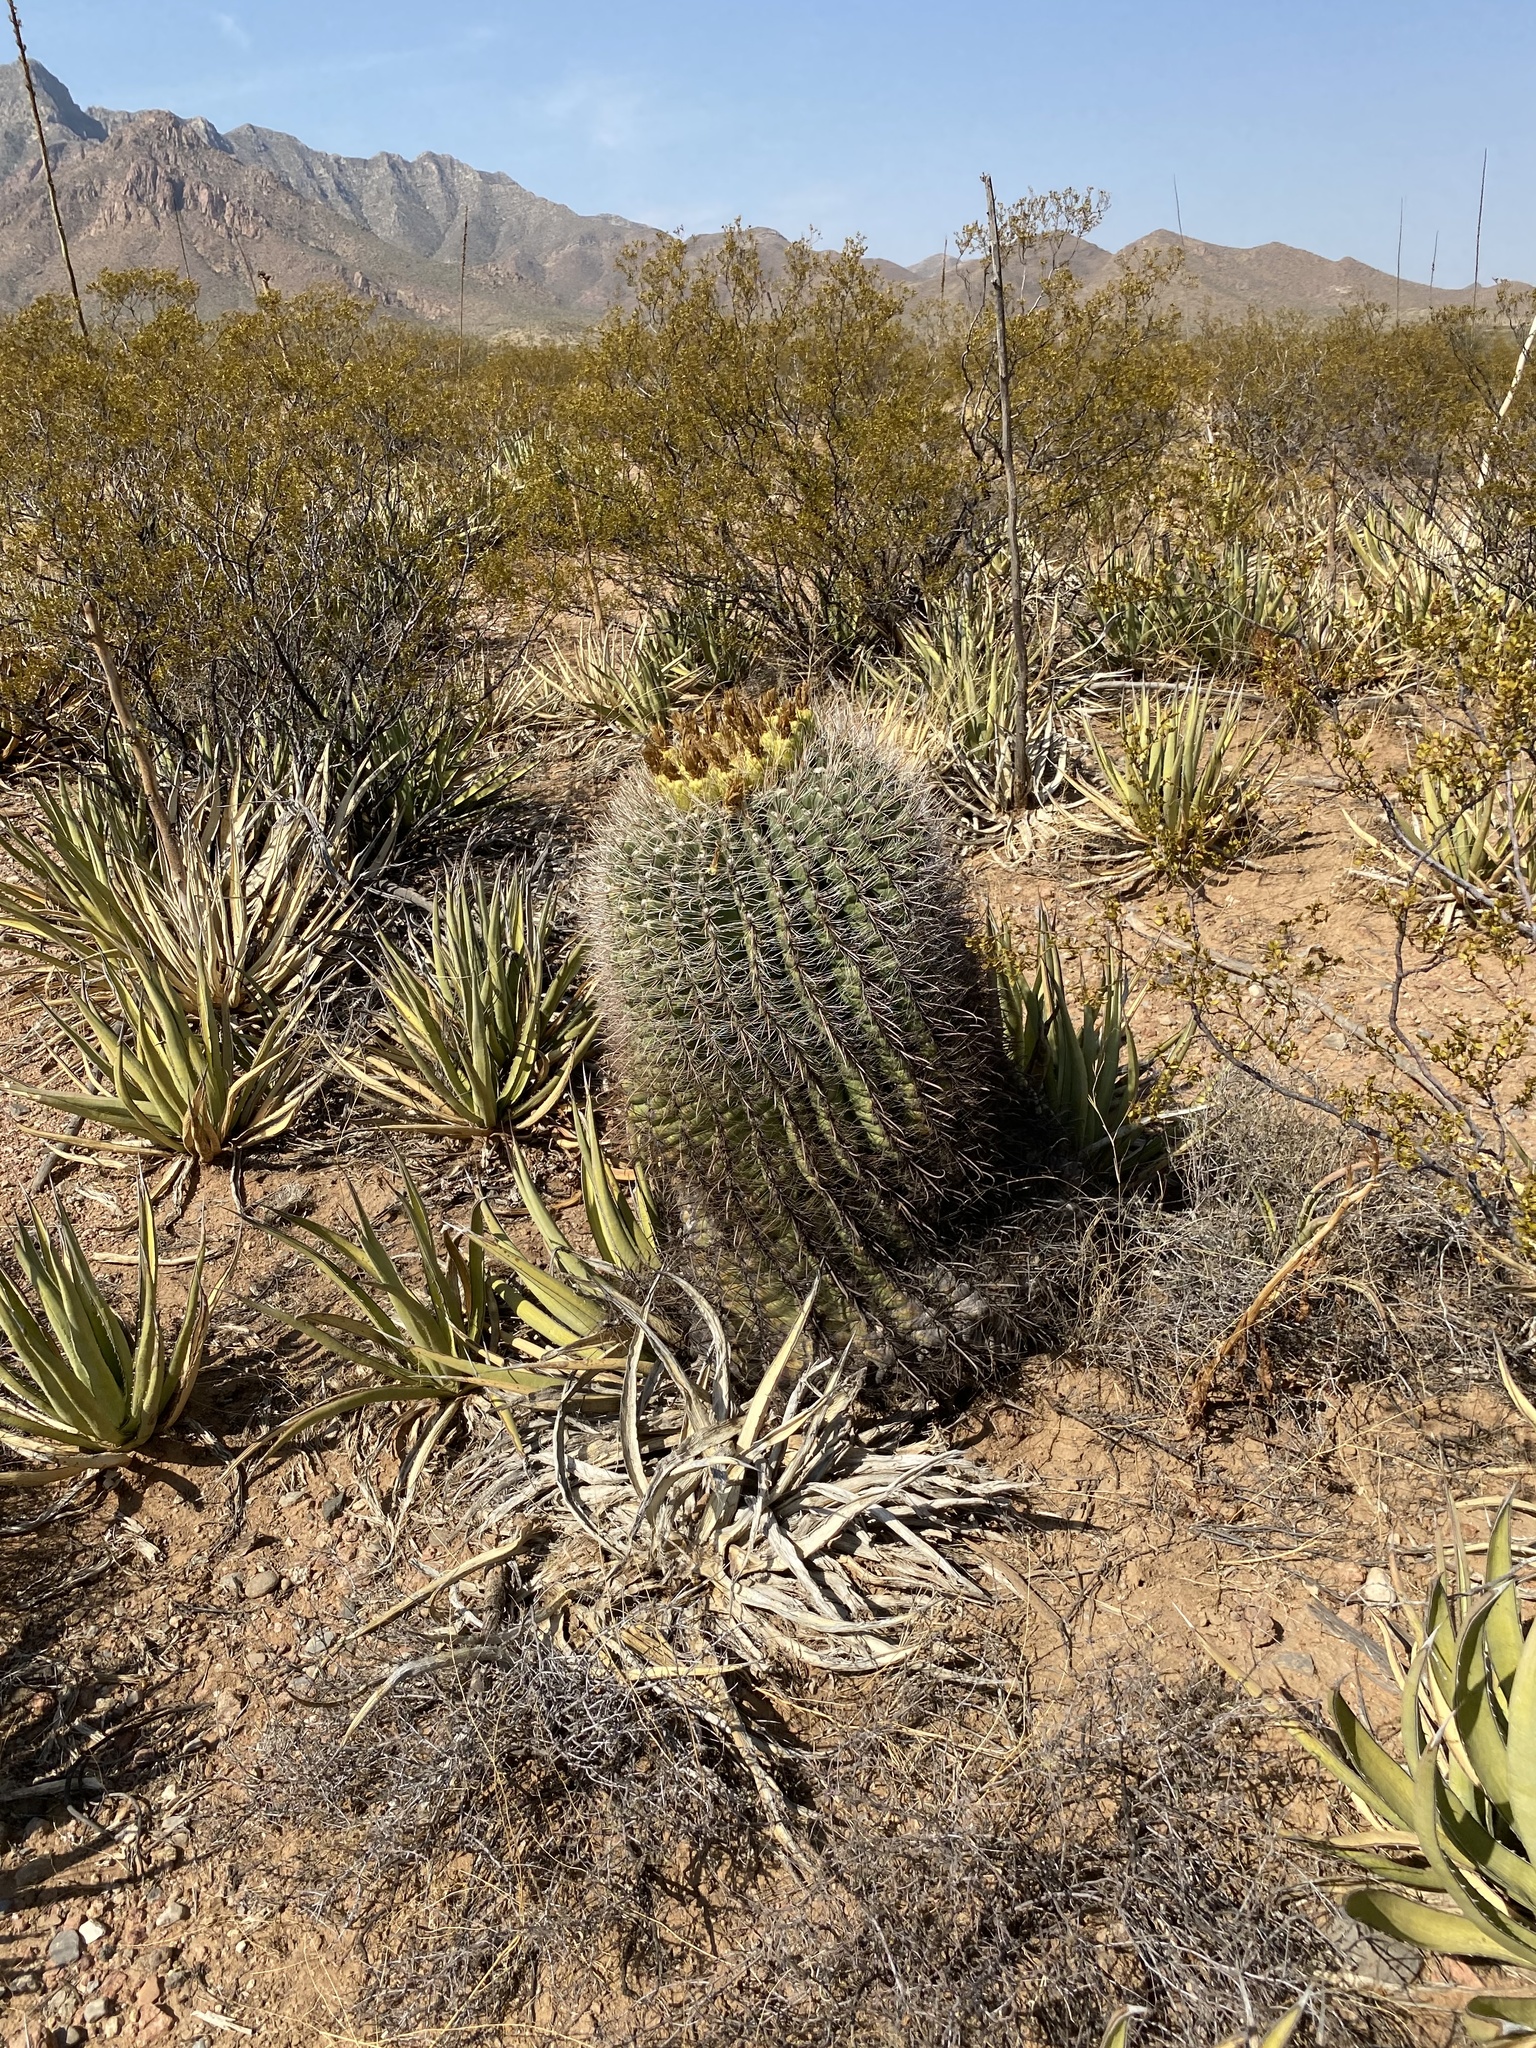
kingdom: Plantae
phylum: Tracheophyta
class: Magnoliopsida
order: Caryophyllales
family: Cactaceae
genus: Ferocactus
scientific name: Ferocactus wislizeni
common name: Candy barrel cactus
